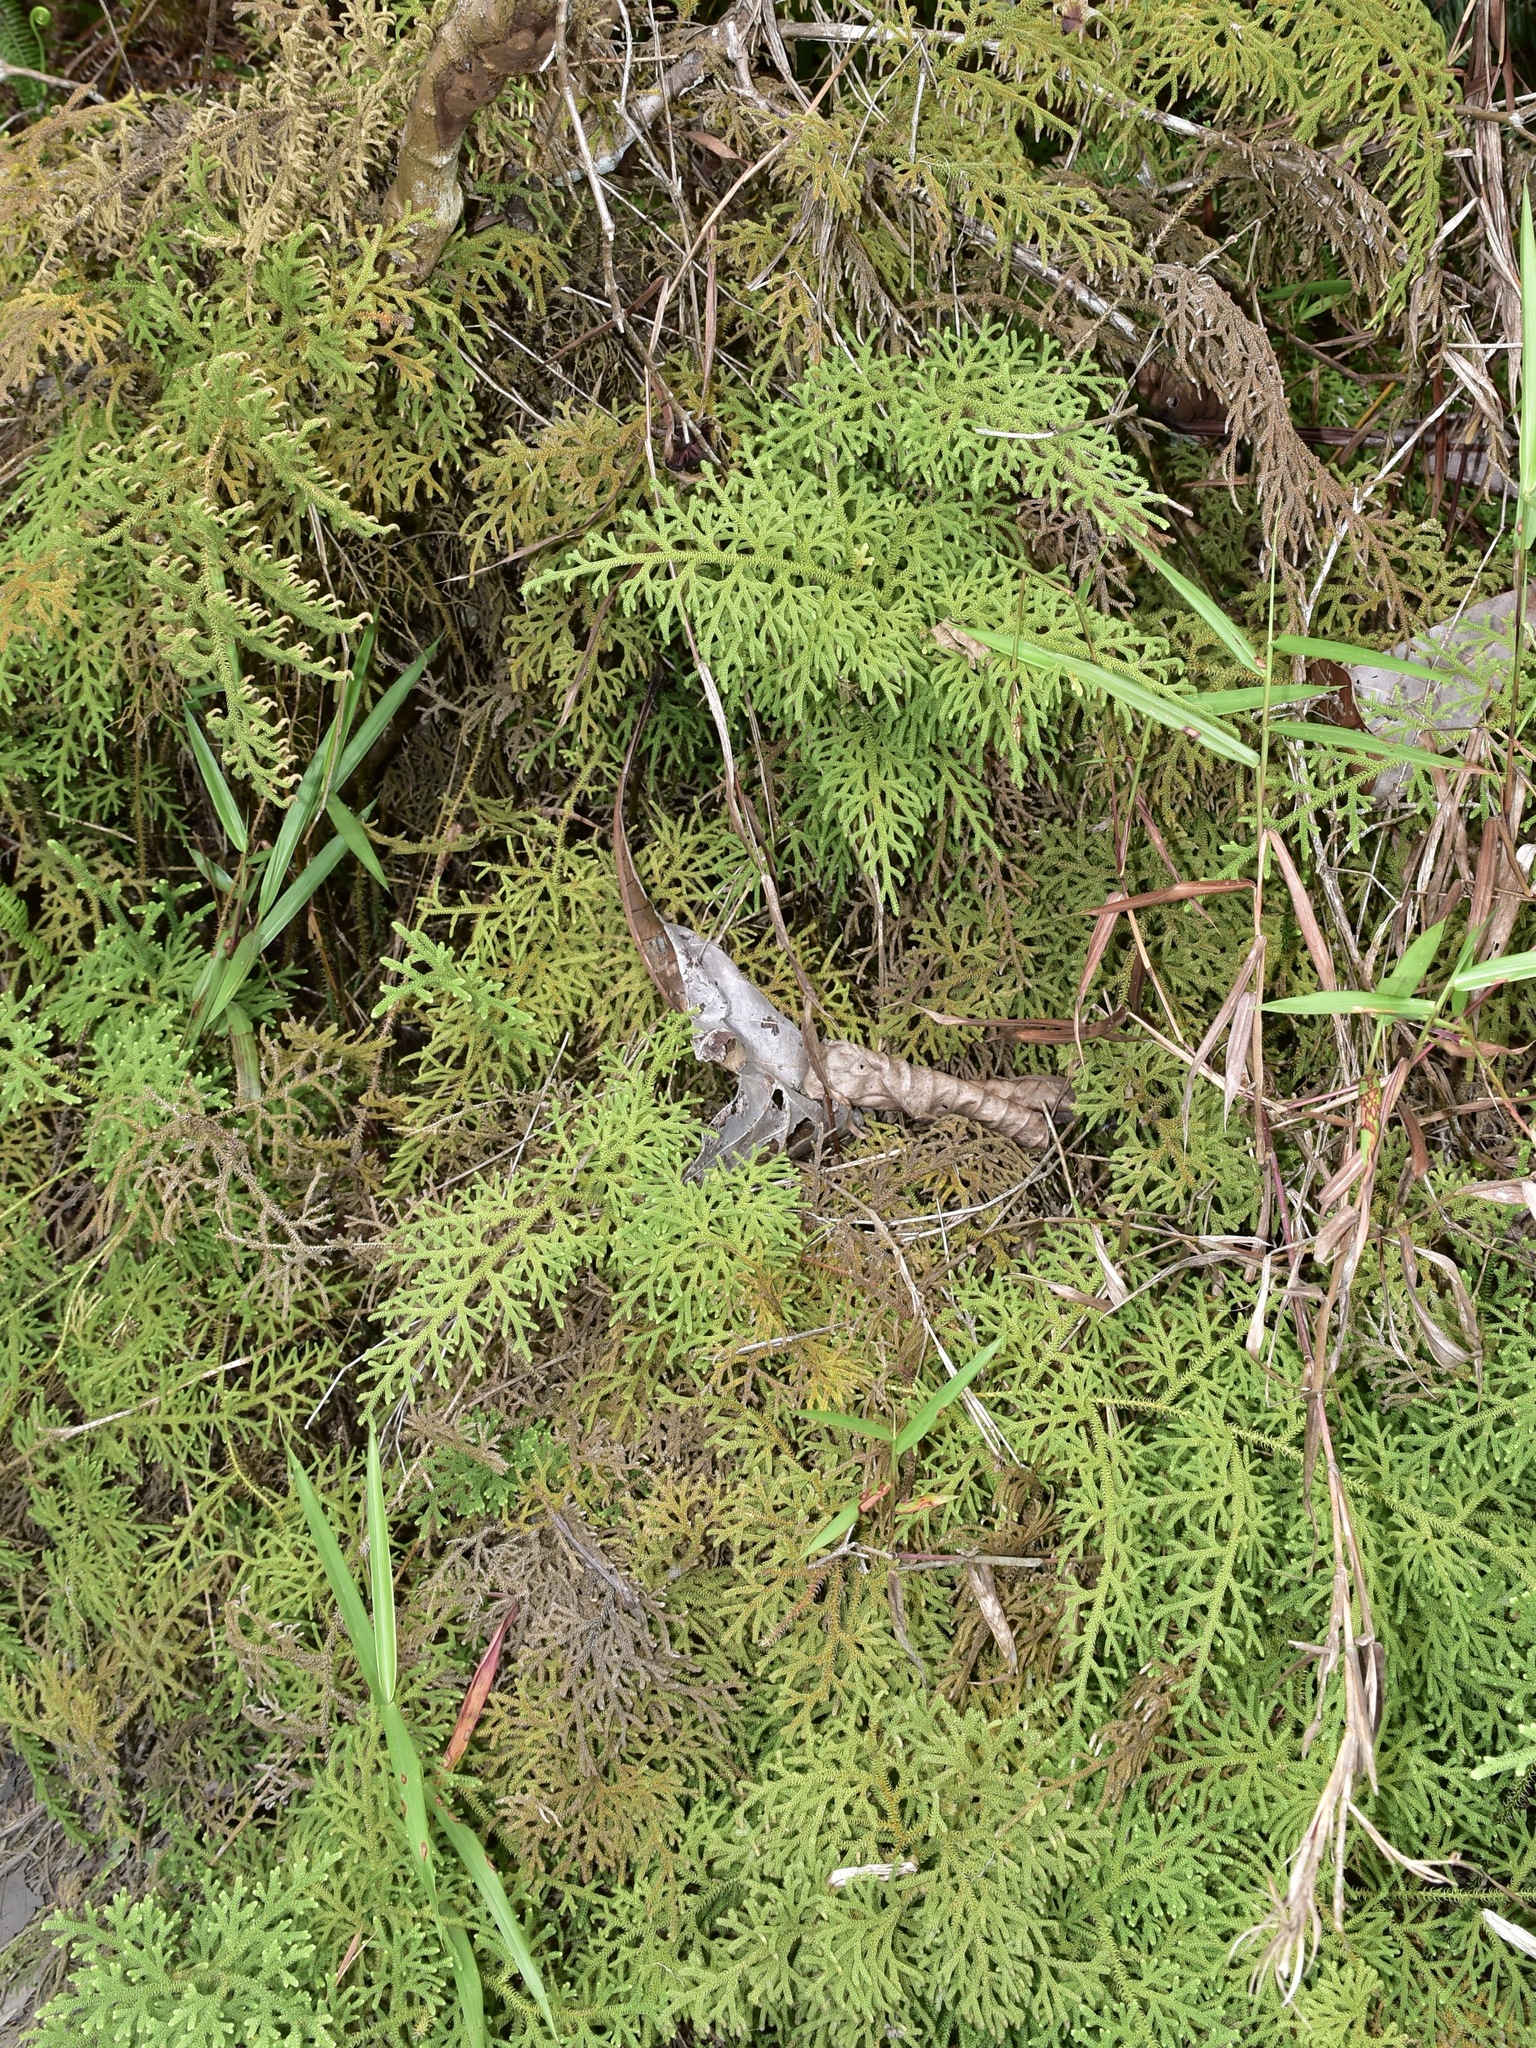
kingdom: Plantae
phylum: Tracheophyta
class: Lycopodiopsida
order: Lycopodiales
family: Lycopodiaceae
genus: Palhinhaea
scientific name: Palhinhaea cernua
